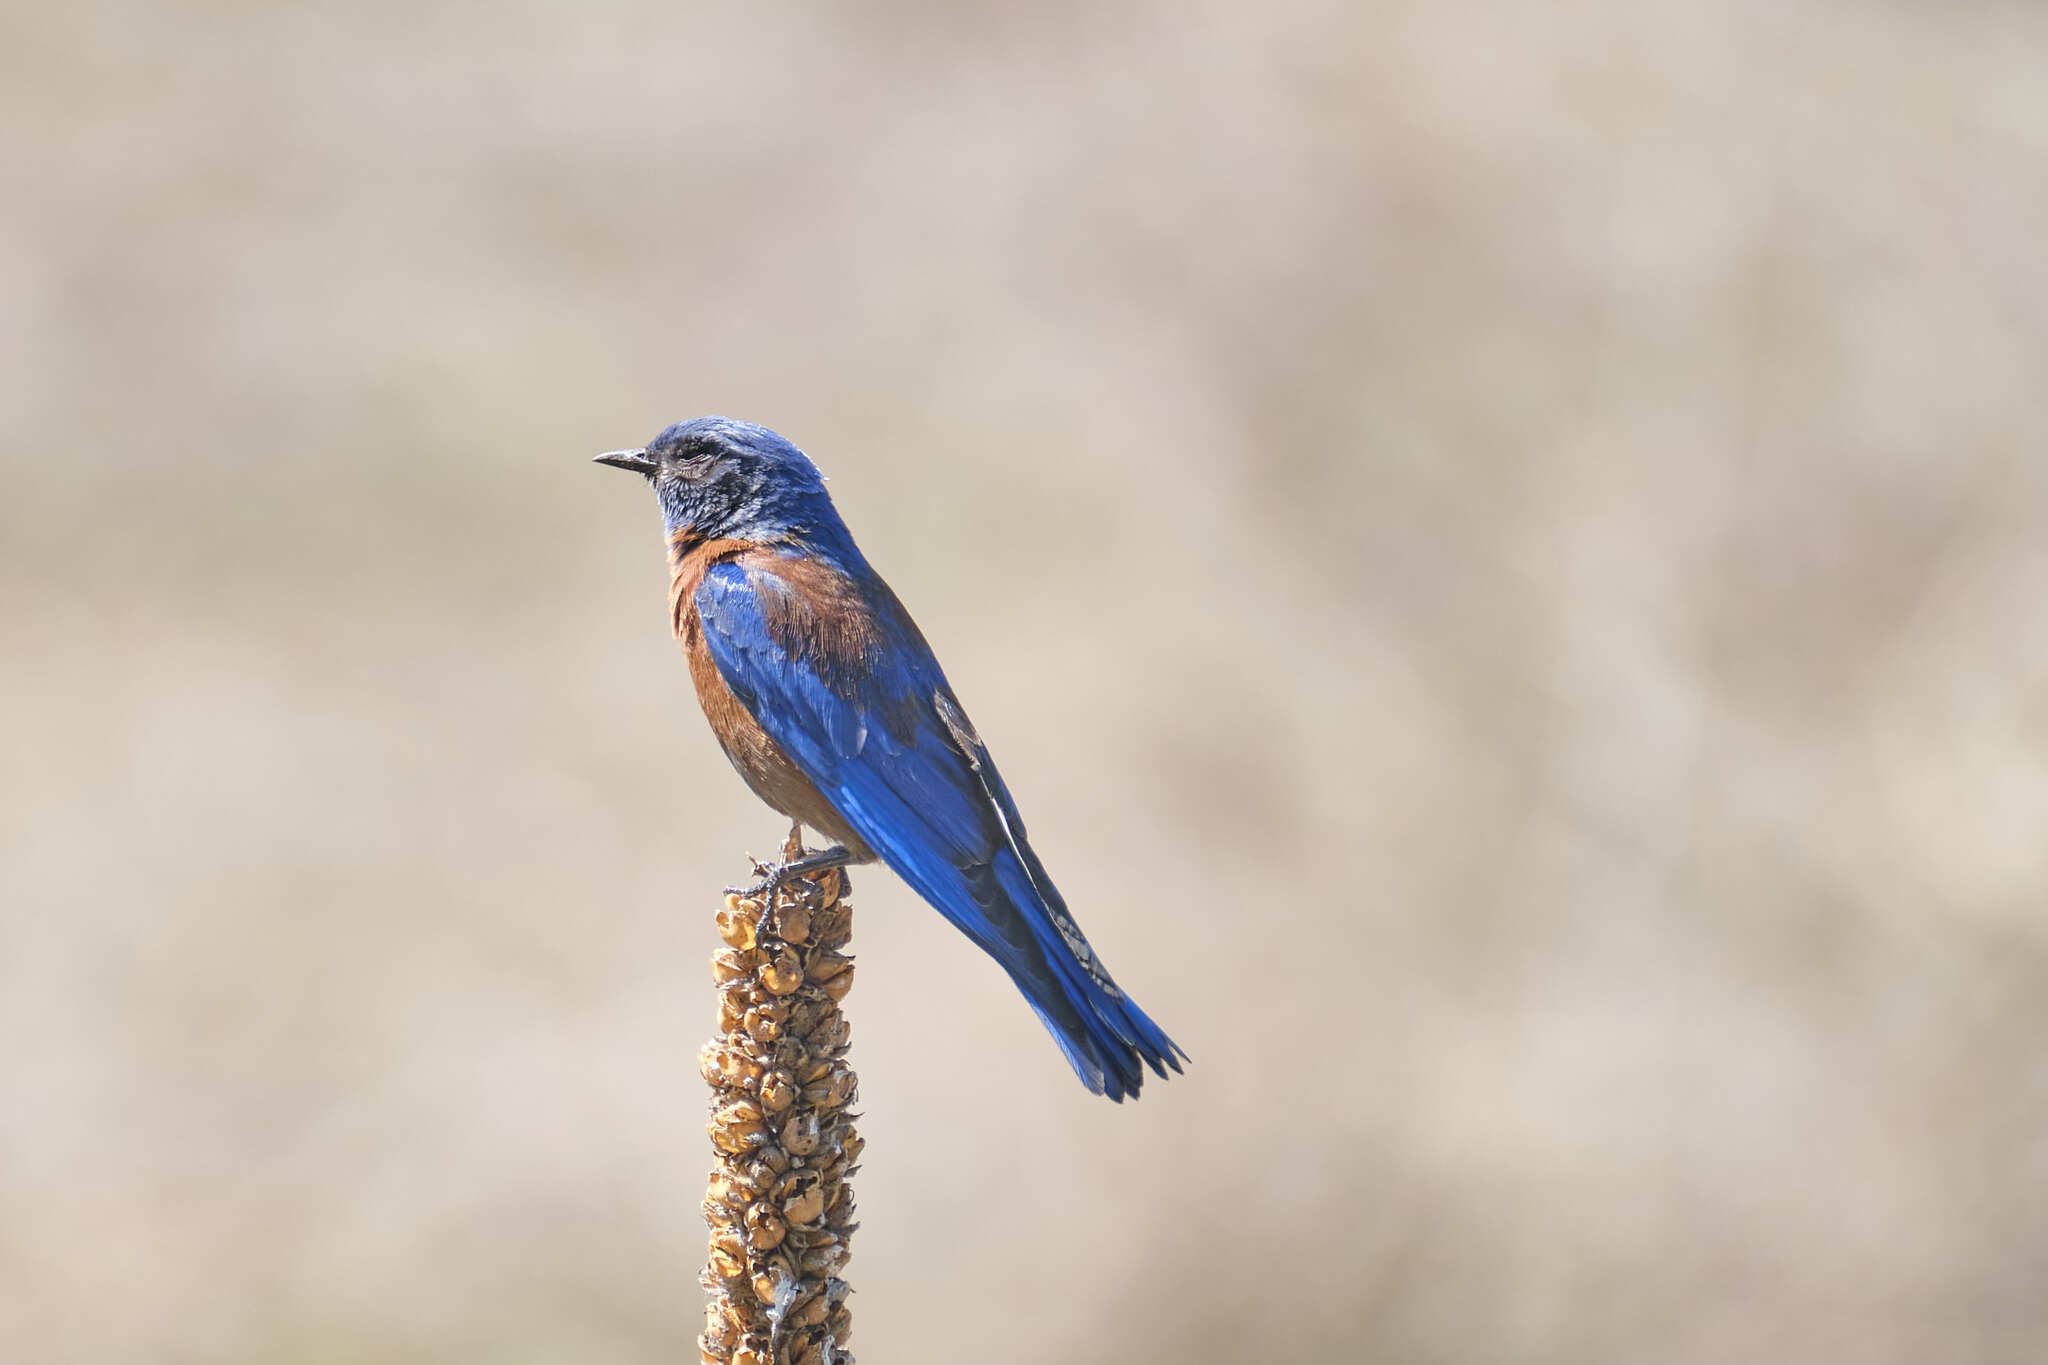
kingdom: Animalia
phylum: Chordata
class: Aves
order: Passeriformes
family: Turdidae
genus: Sialia
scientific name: Sialia mexicana
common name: Western bluebird
